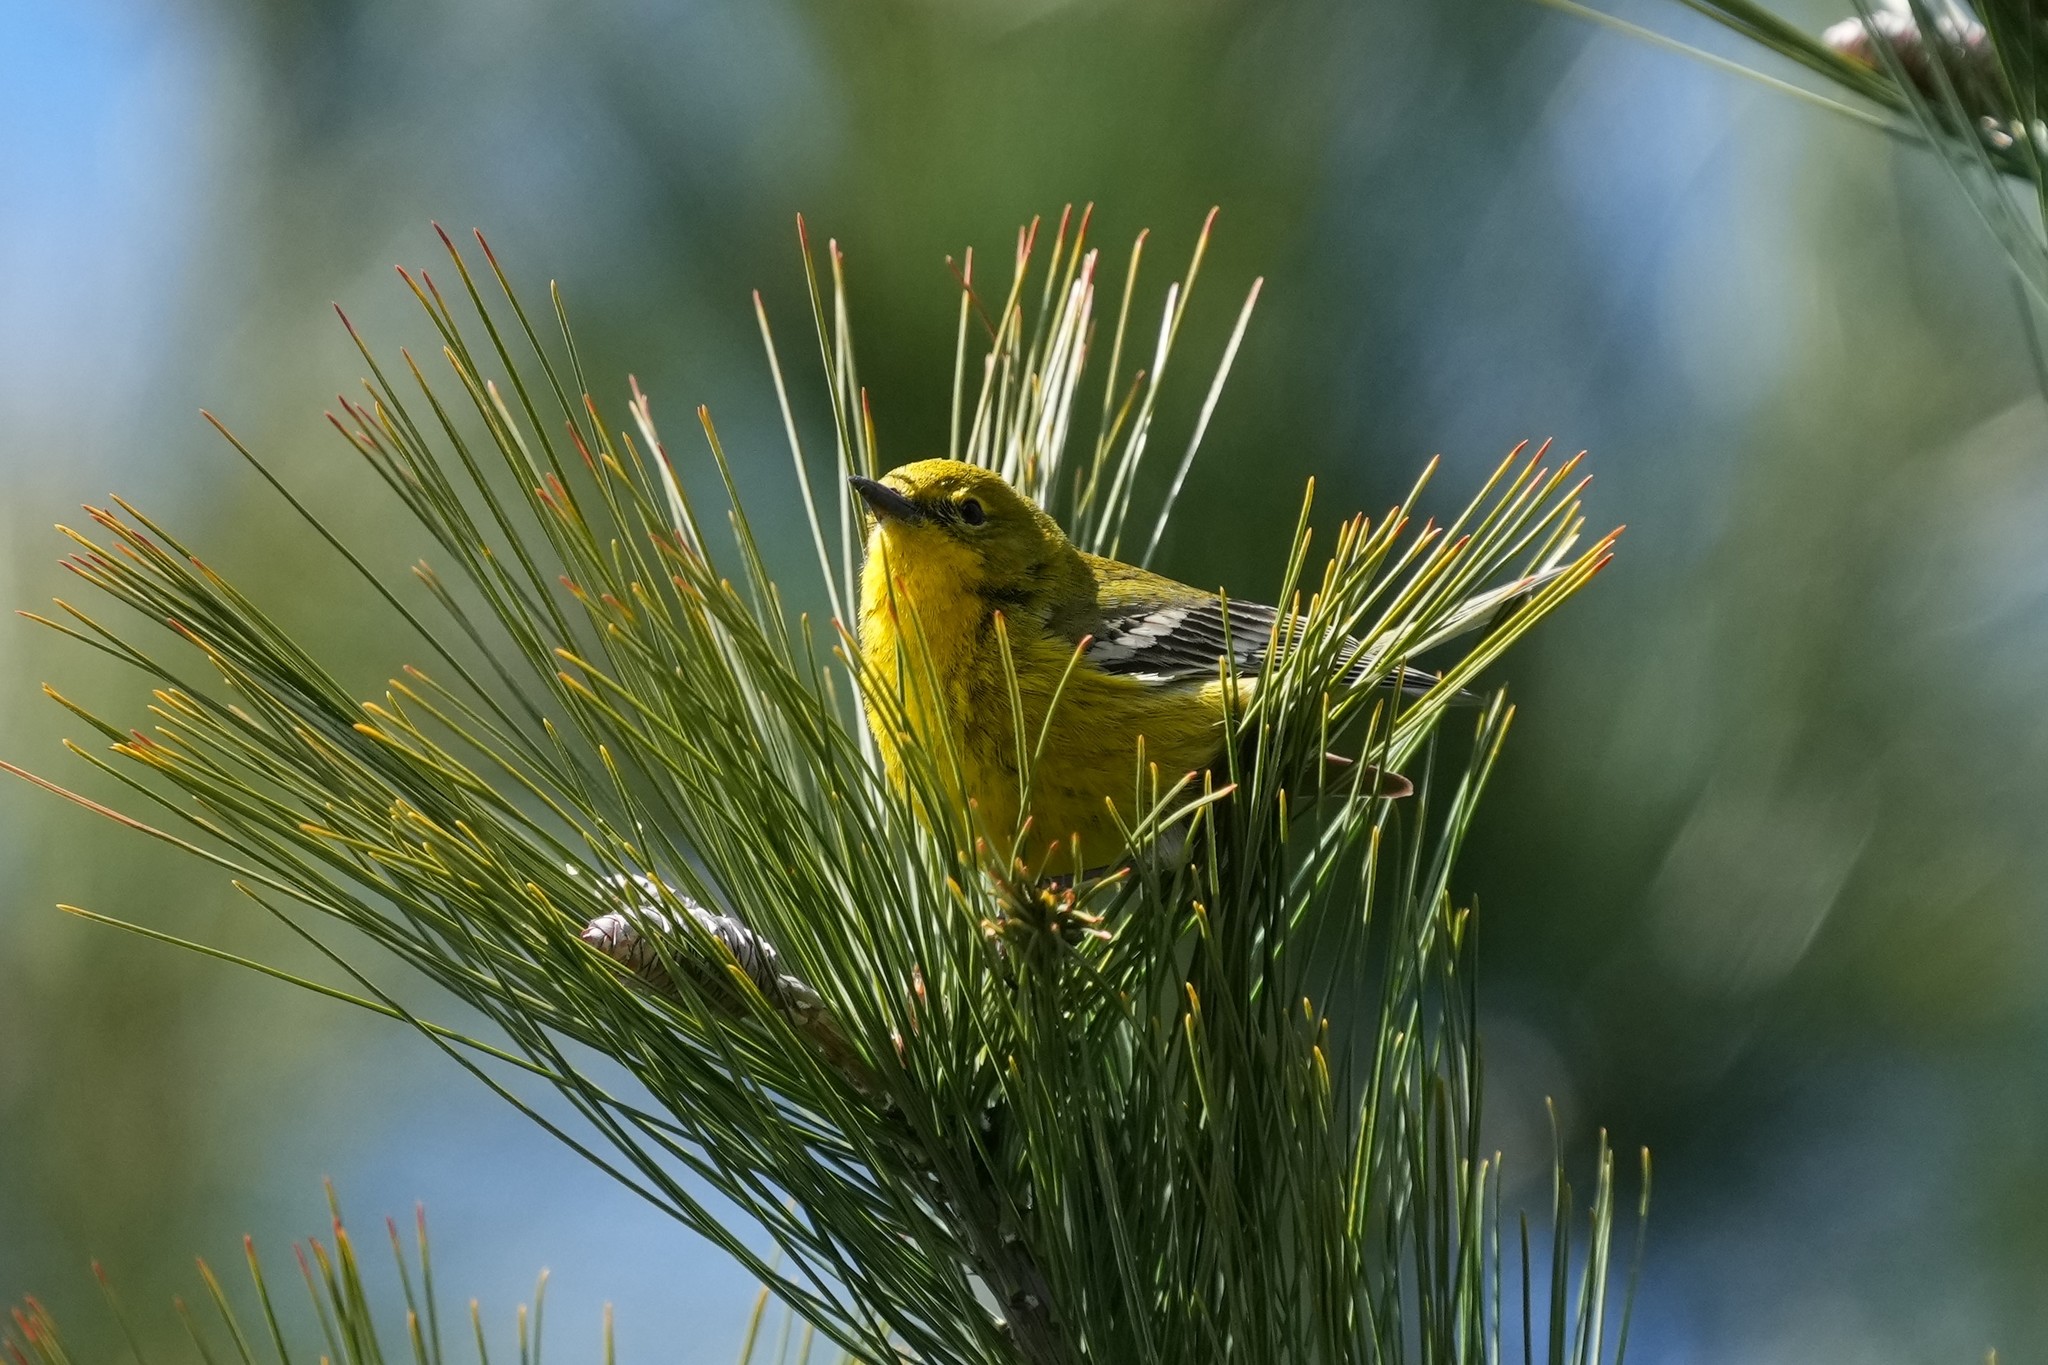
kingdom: Animalia
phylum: Chordata
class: Aves
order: Passeriformes
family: Parulidae
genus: Setophaga
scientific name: Setophaga pinus
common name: Pine warbler
